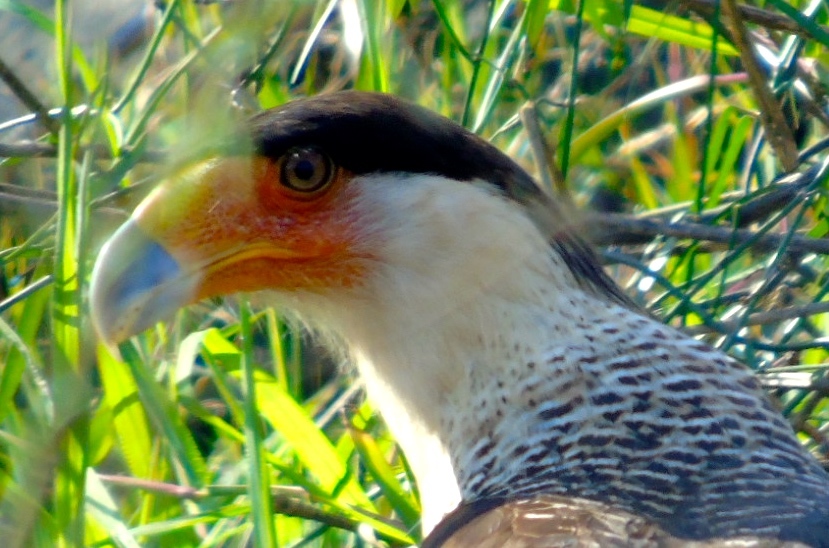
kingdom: Animalia
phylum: Chordata
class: Aves
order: Falconiformes
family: Falconidae
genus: Caracara
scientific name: Caracara plancus
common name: Southern caracara
